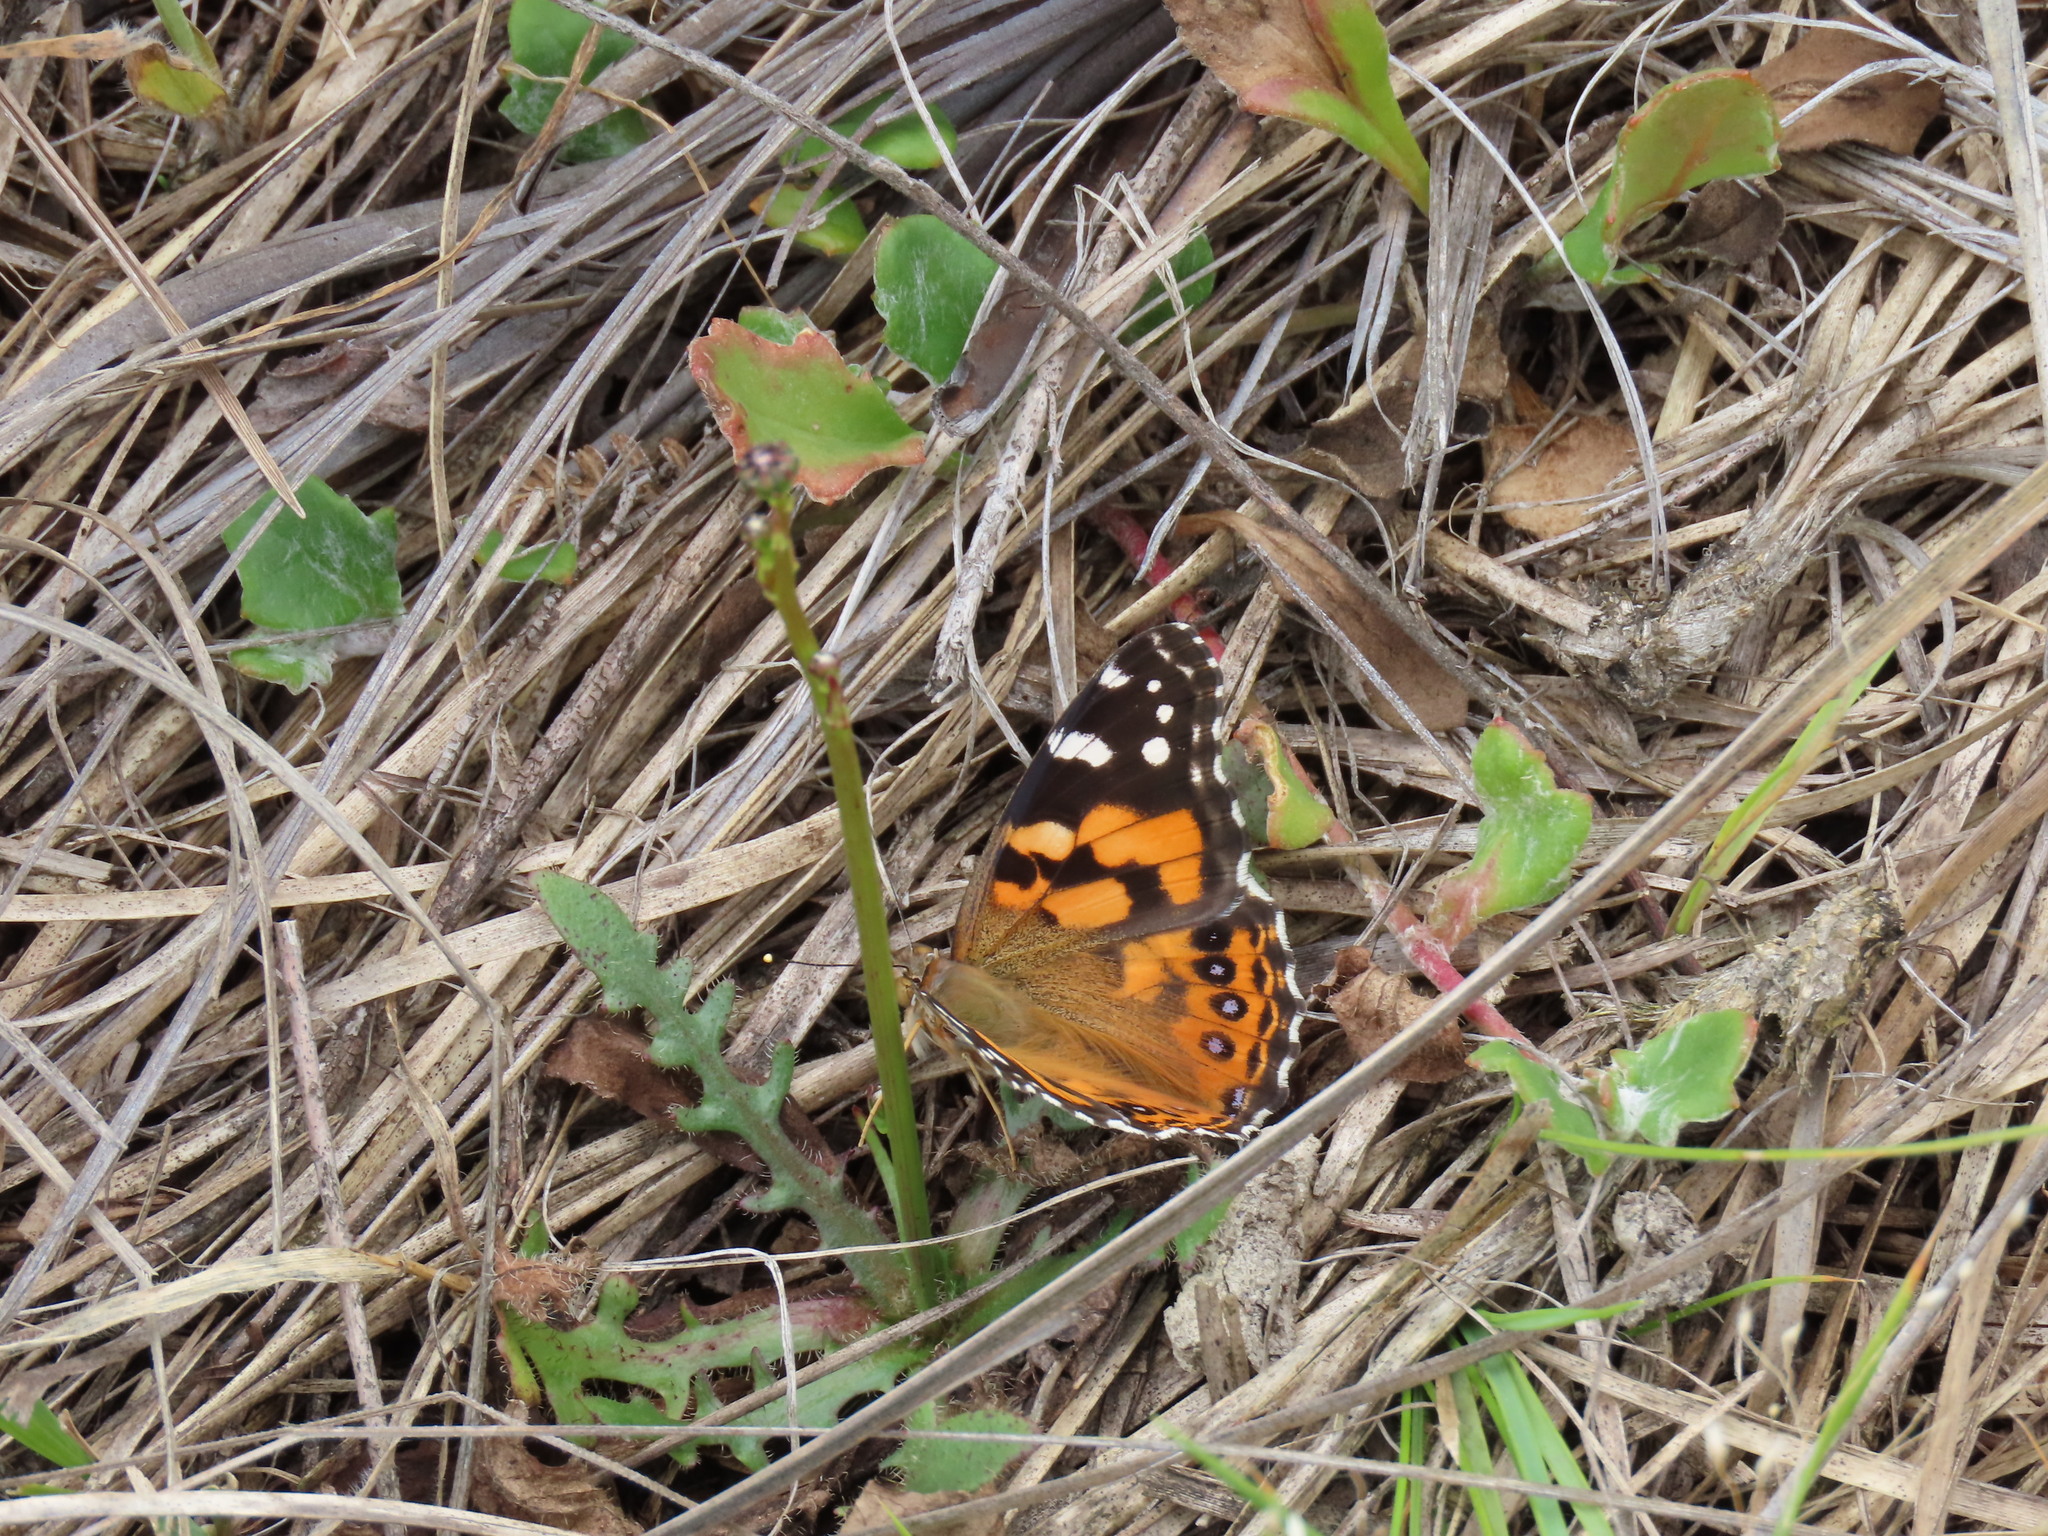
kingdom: Animalia
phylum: Arthropoda
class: Insecta
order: Lepidoptera
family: Nymphalidae
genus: Vanessa
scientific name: Vanessa kershawi
